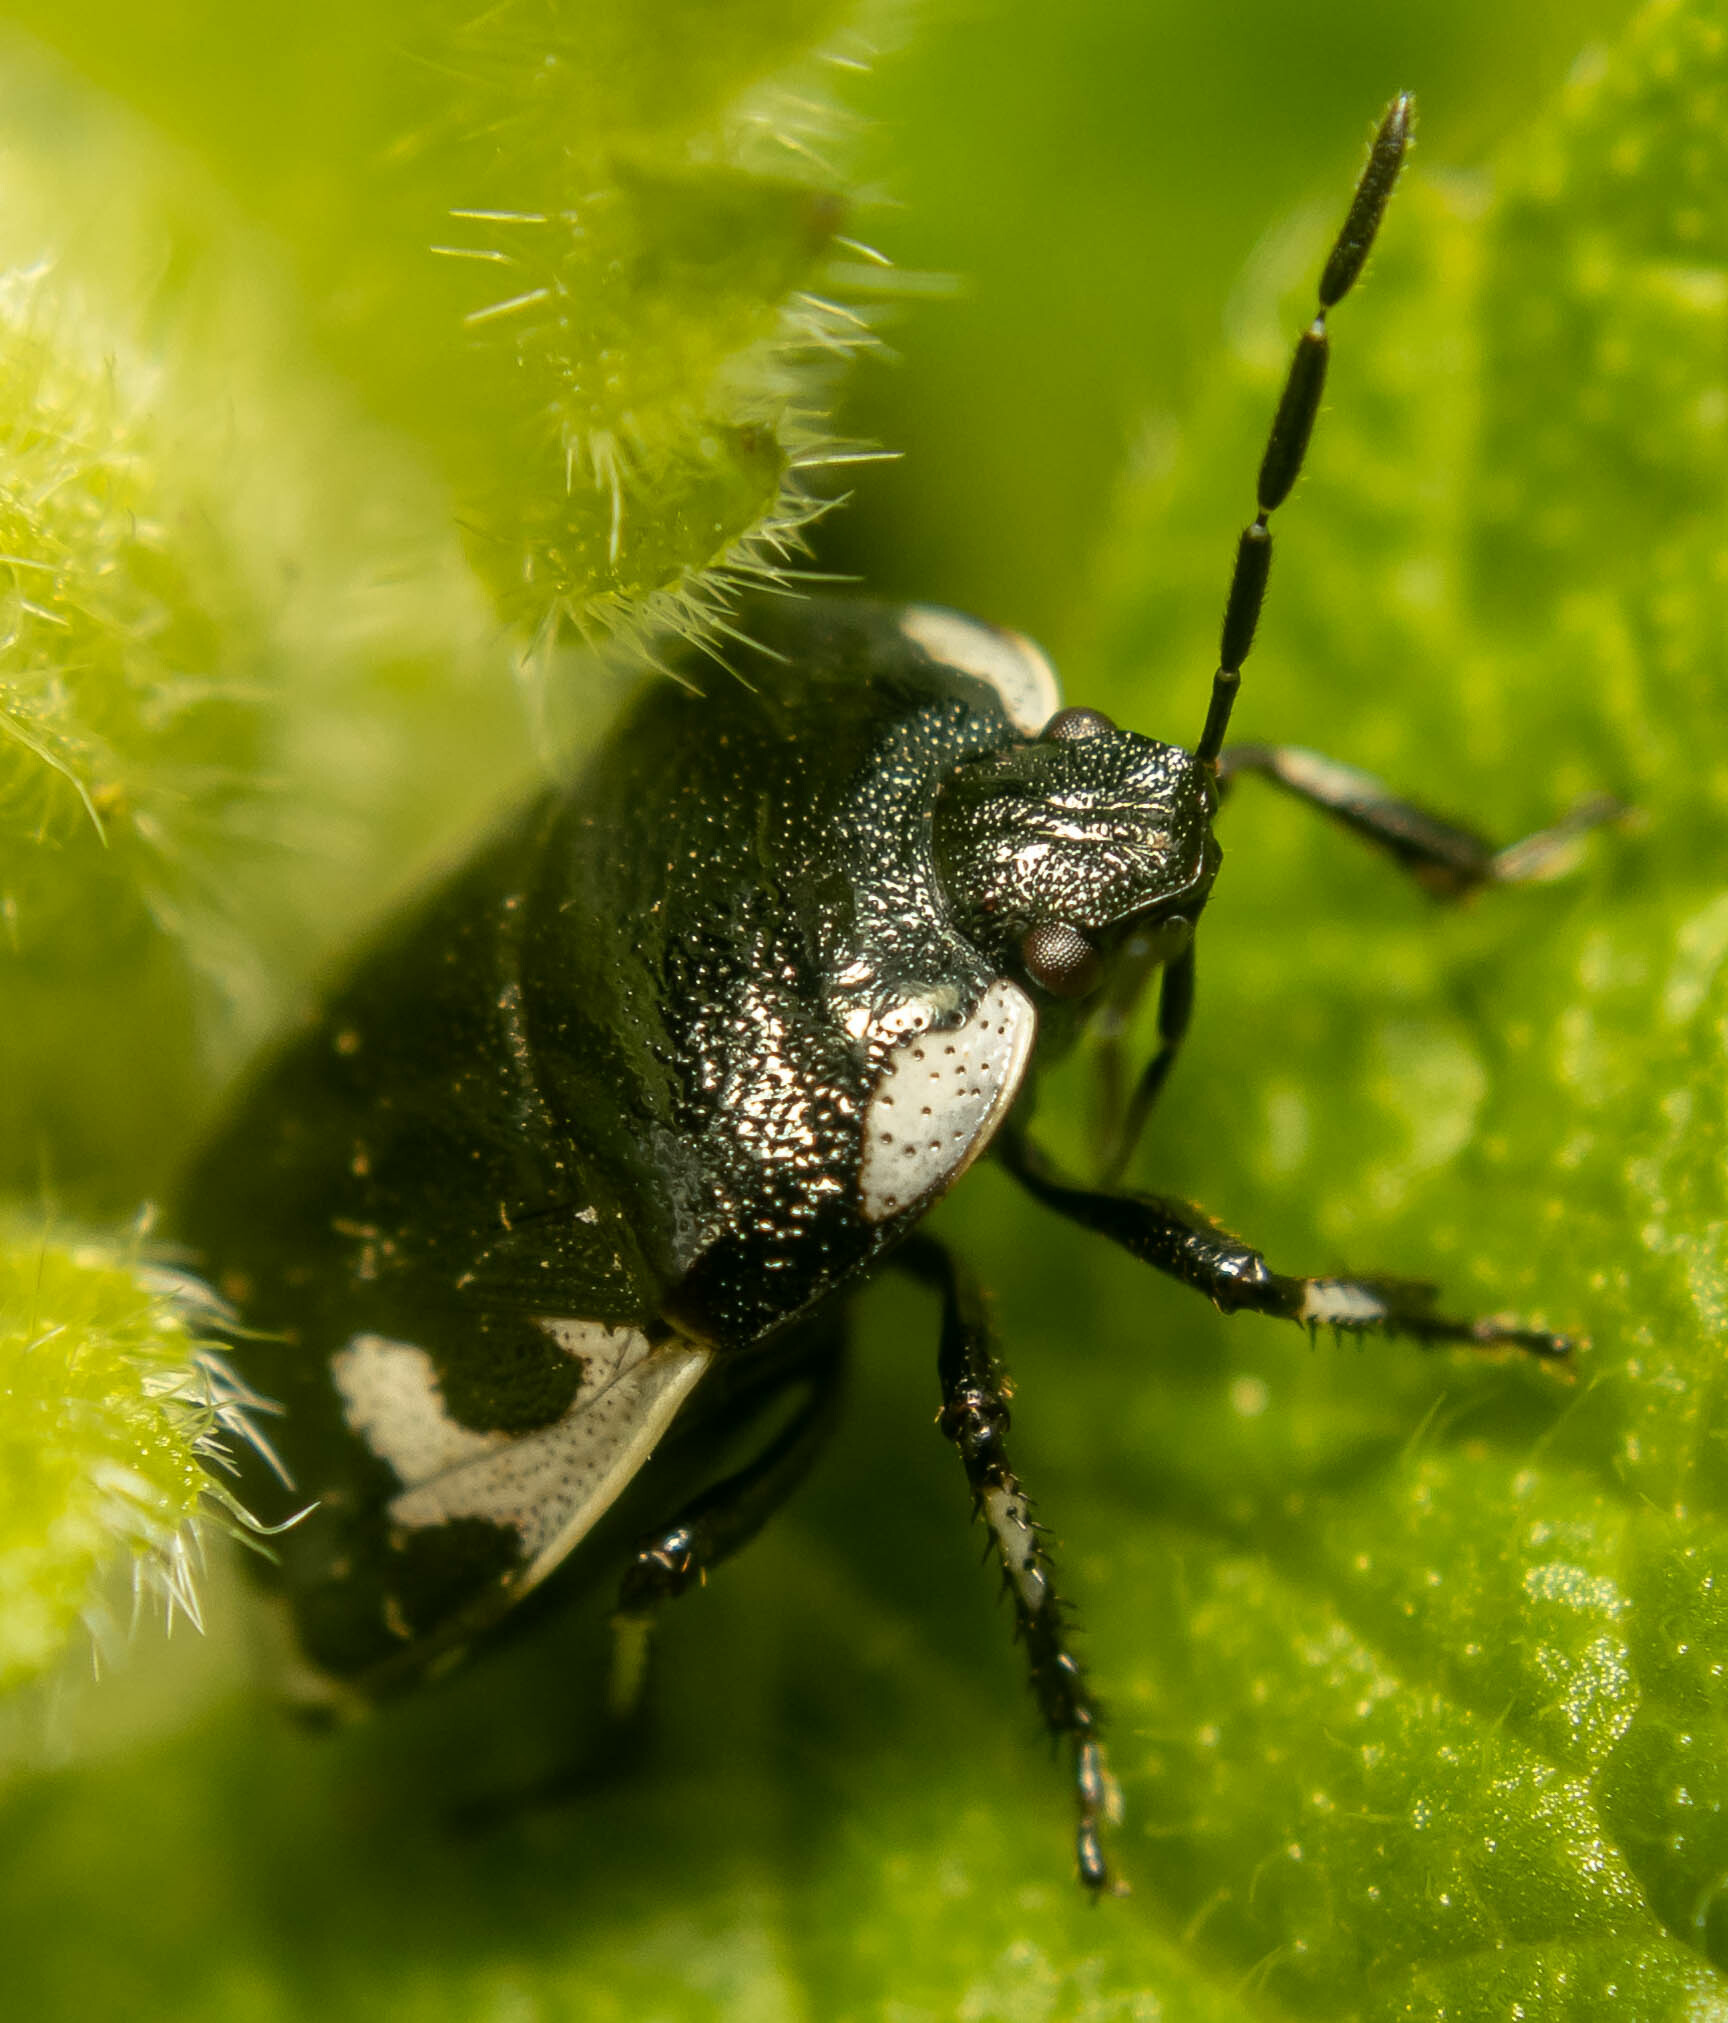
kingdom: Animalia
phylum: Arthropoda
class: Insecta
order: Hemiptera
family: Cydnidae
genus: Tritomegas
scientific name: Tritomegas bicolor
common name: Pied shieldbug
